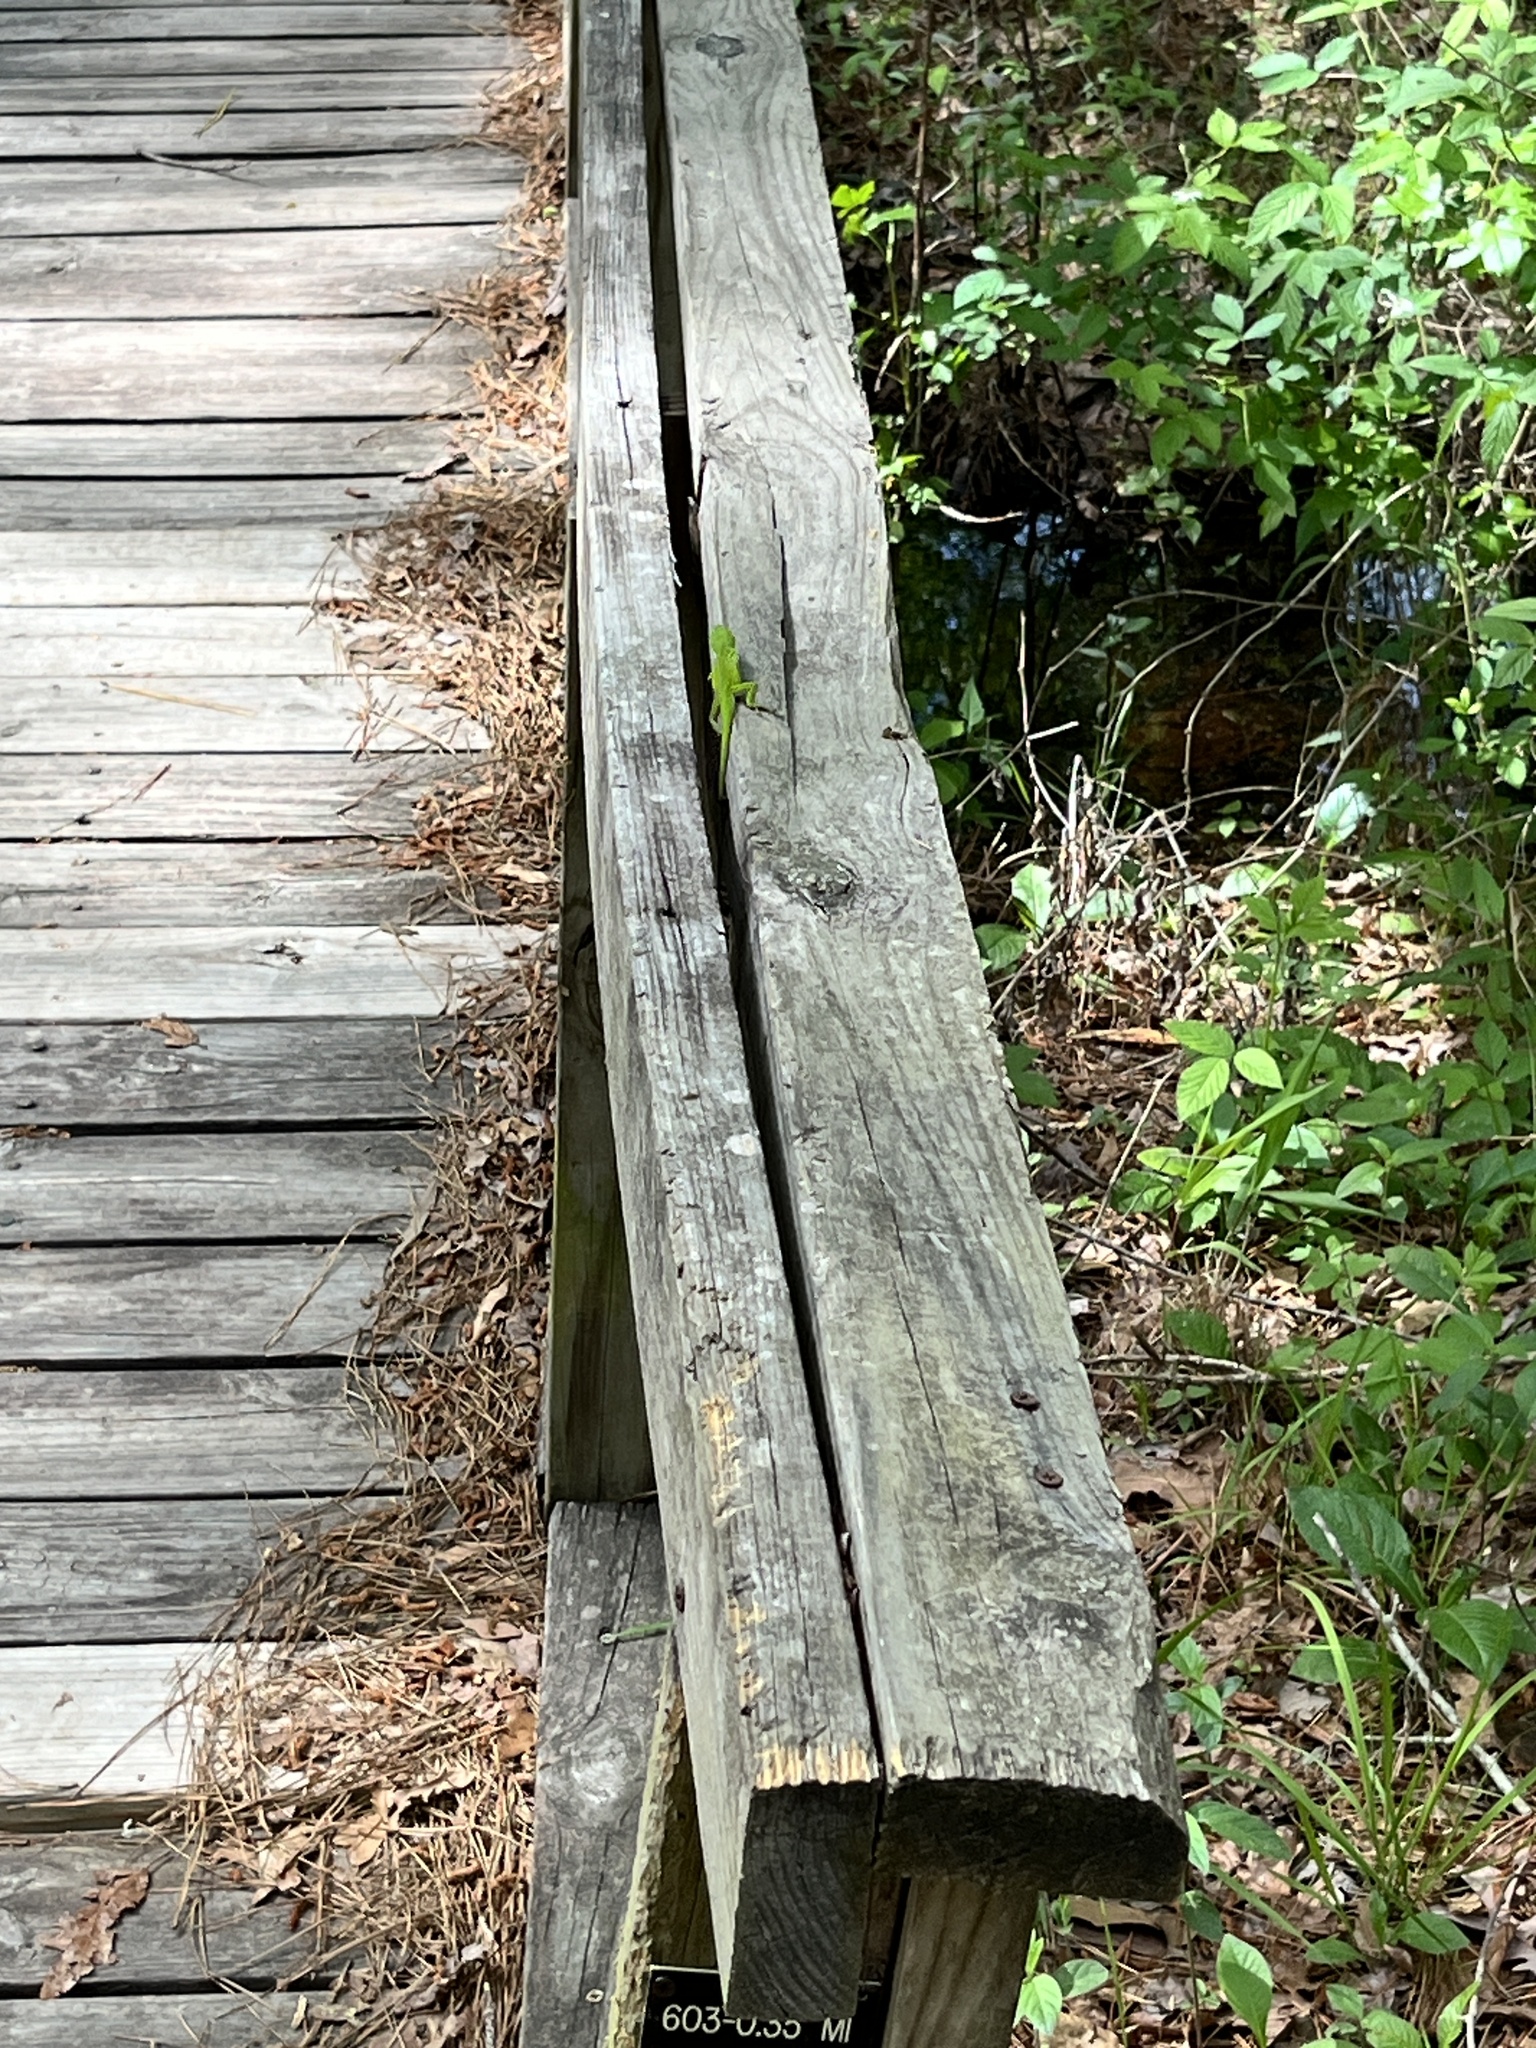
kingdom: Animalia
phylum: Chordata
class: Squamata
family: Dactyloidae
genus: Anolis
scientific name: Anolis carolinensis
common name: Green anole
